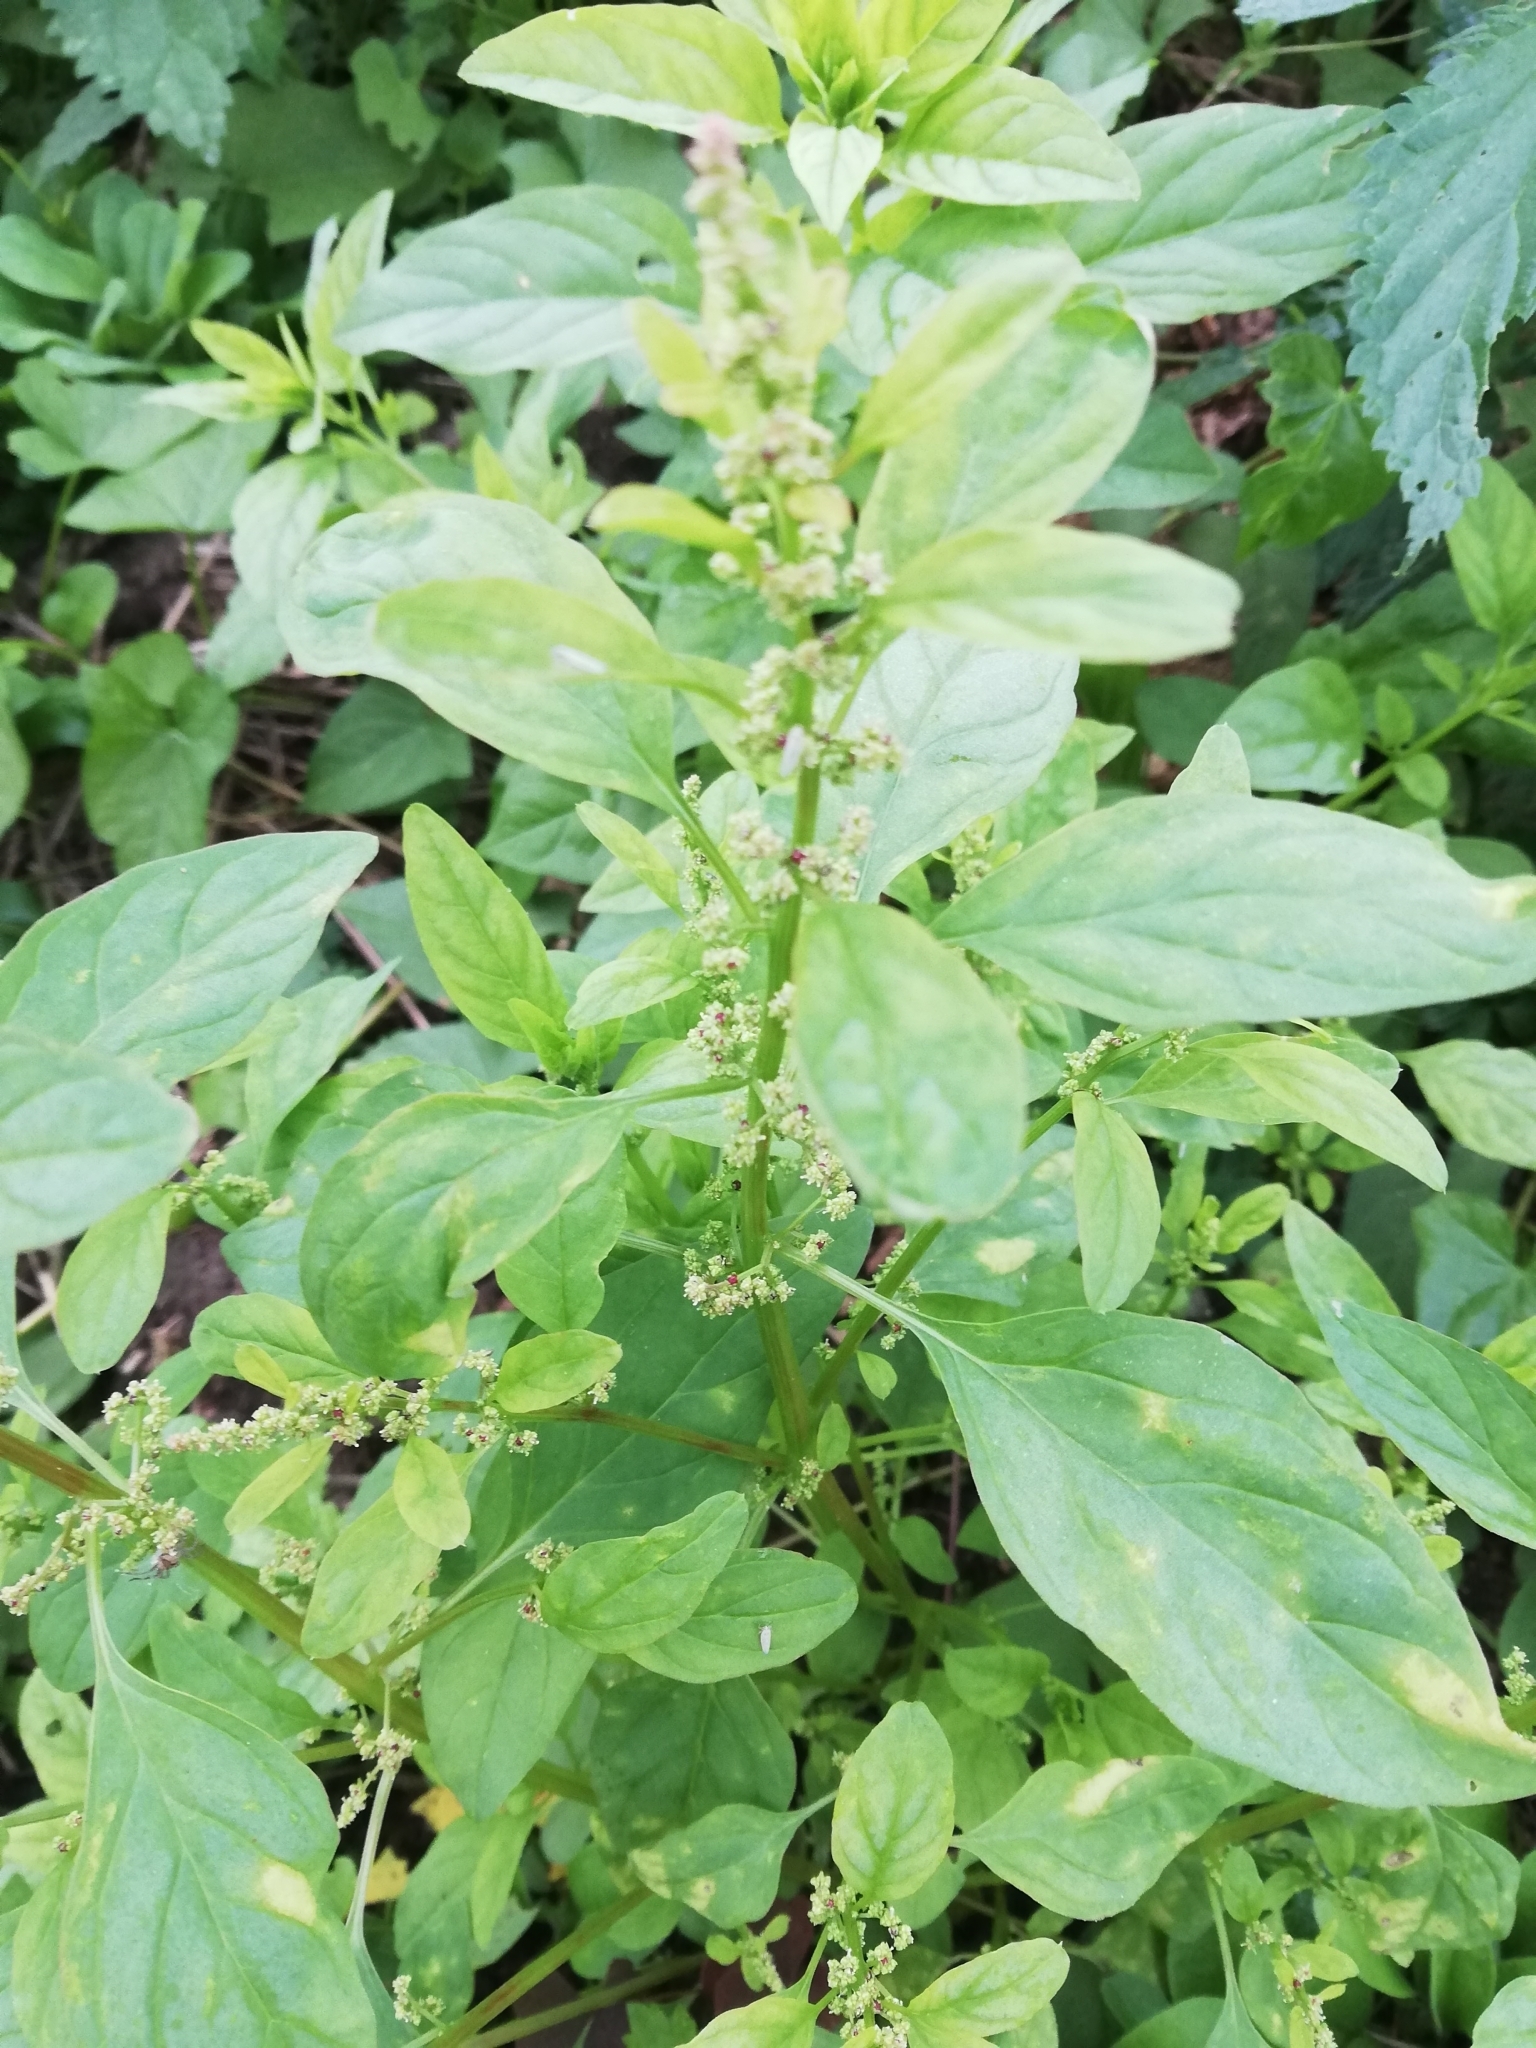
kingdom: Plantae
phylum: Tracheophyta
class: Magnoliopsida
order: Caryophyllales
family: Amaranthaceae
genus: Lipandra
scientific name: Lipandra polysperma
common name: Many-seed goosefoot
